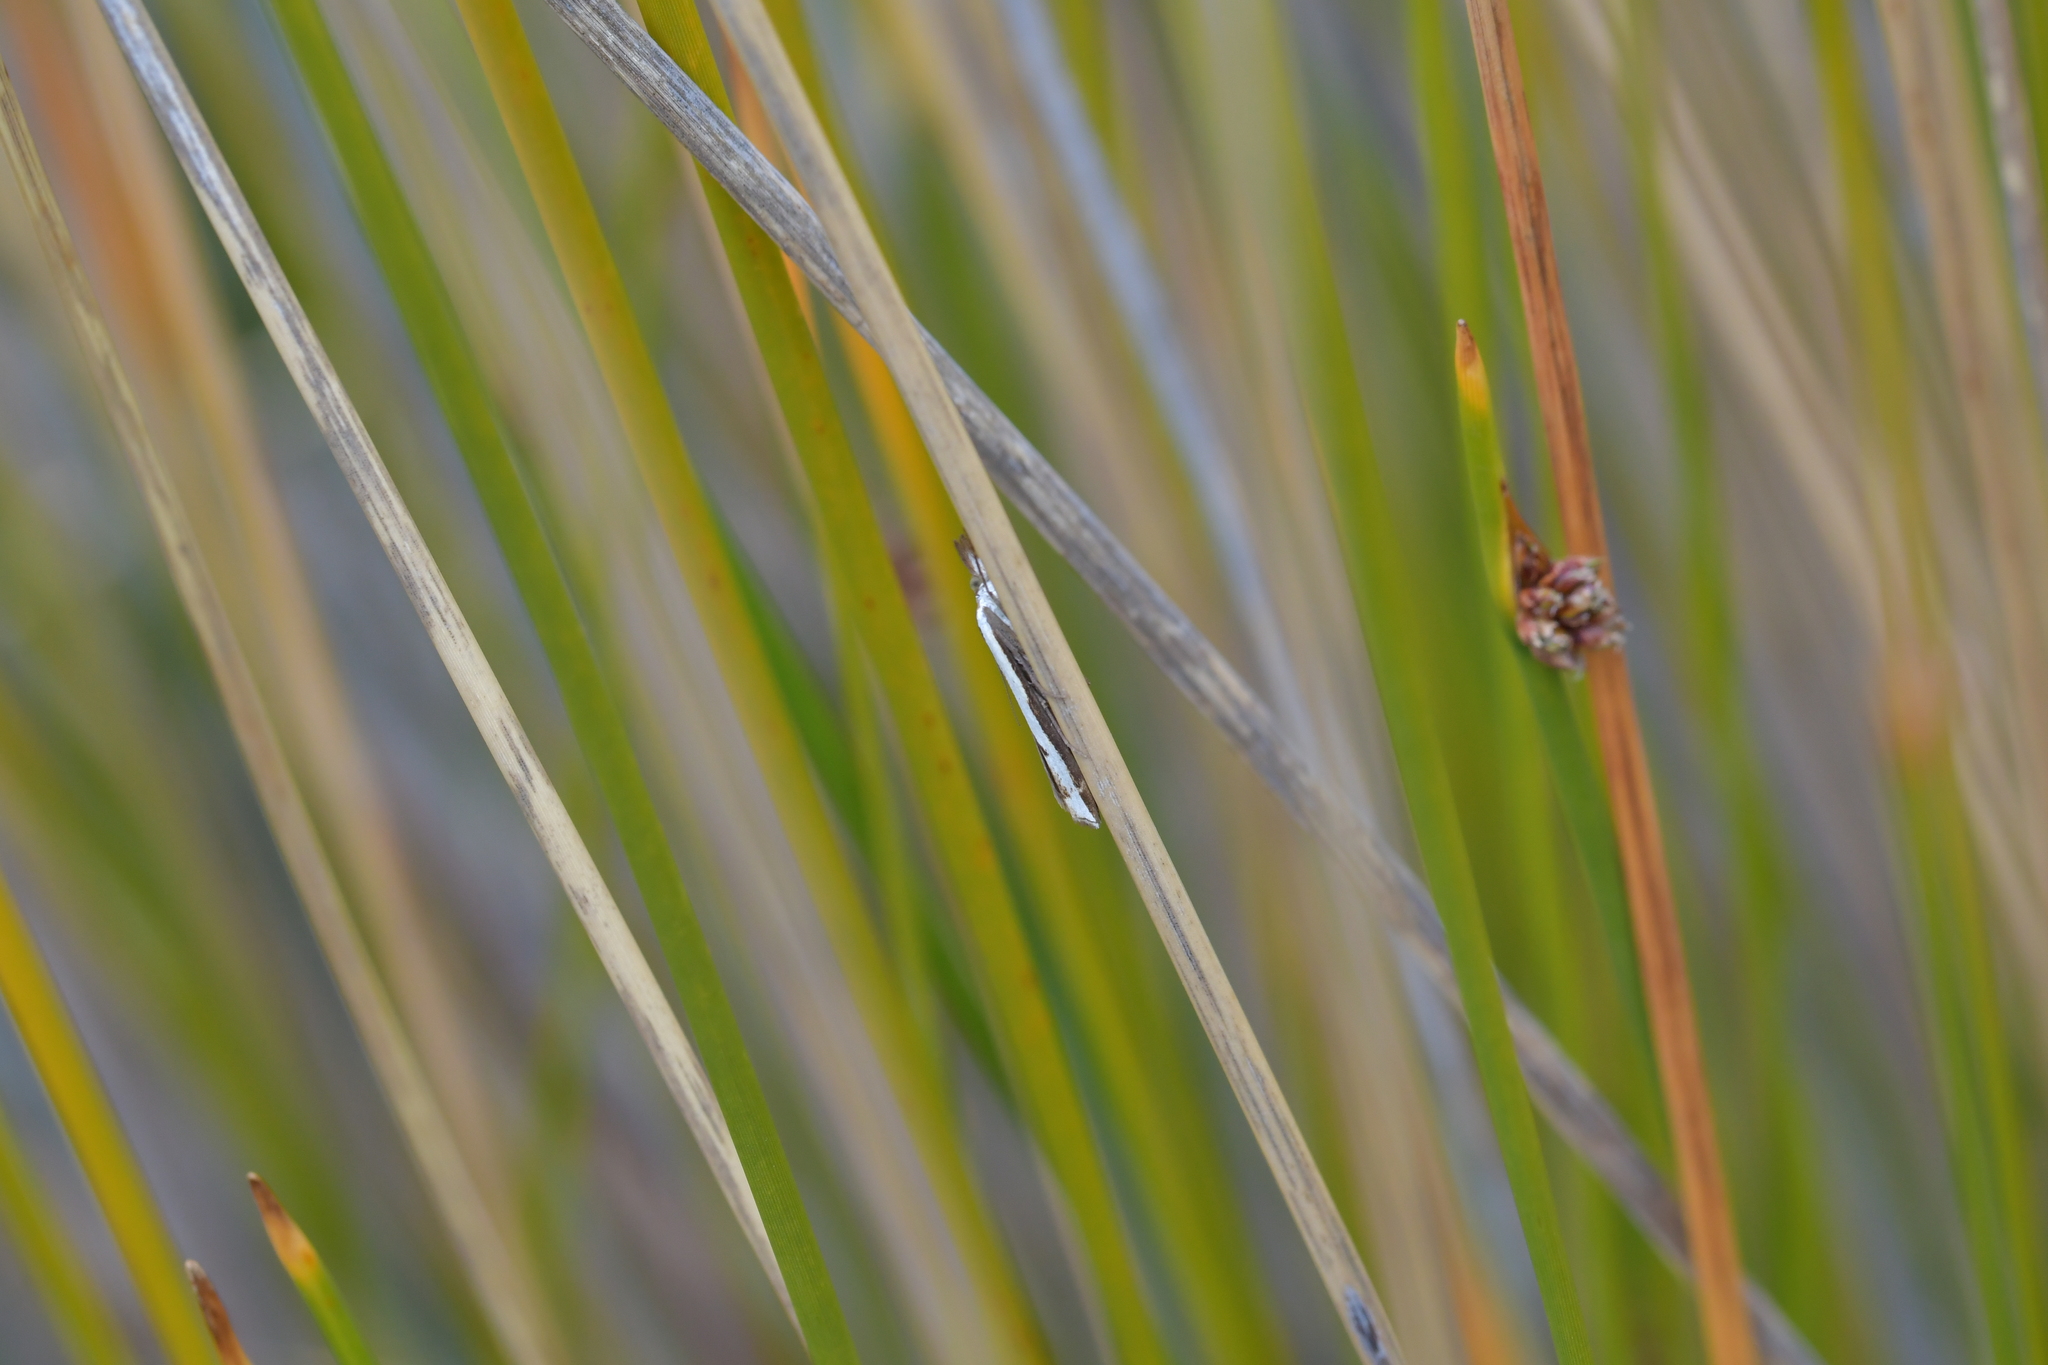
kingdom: Animalia
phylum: Arthropoda
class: Insecta
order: Lepidoptera
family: Crambidae
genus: Orocrambus
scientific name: Orocrambus flexuosellus
